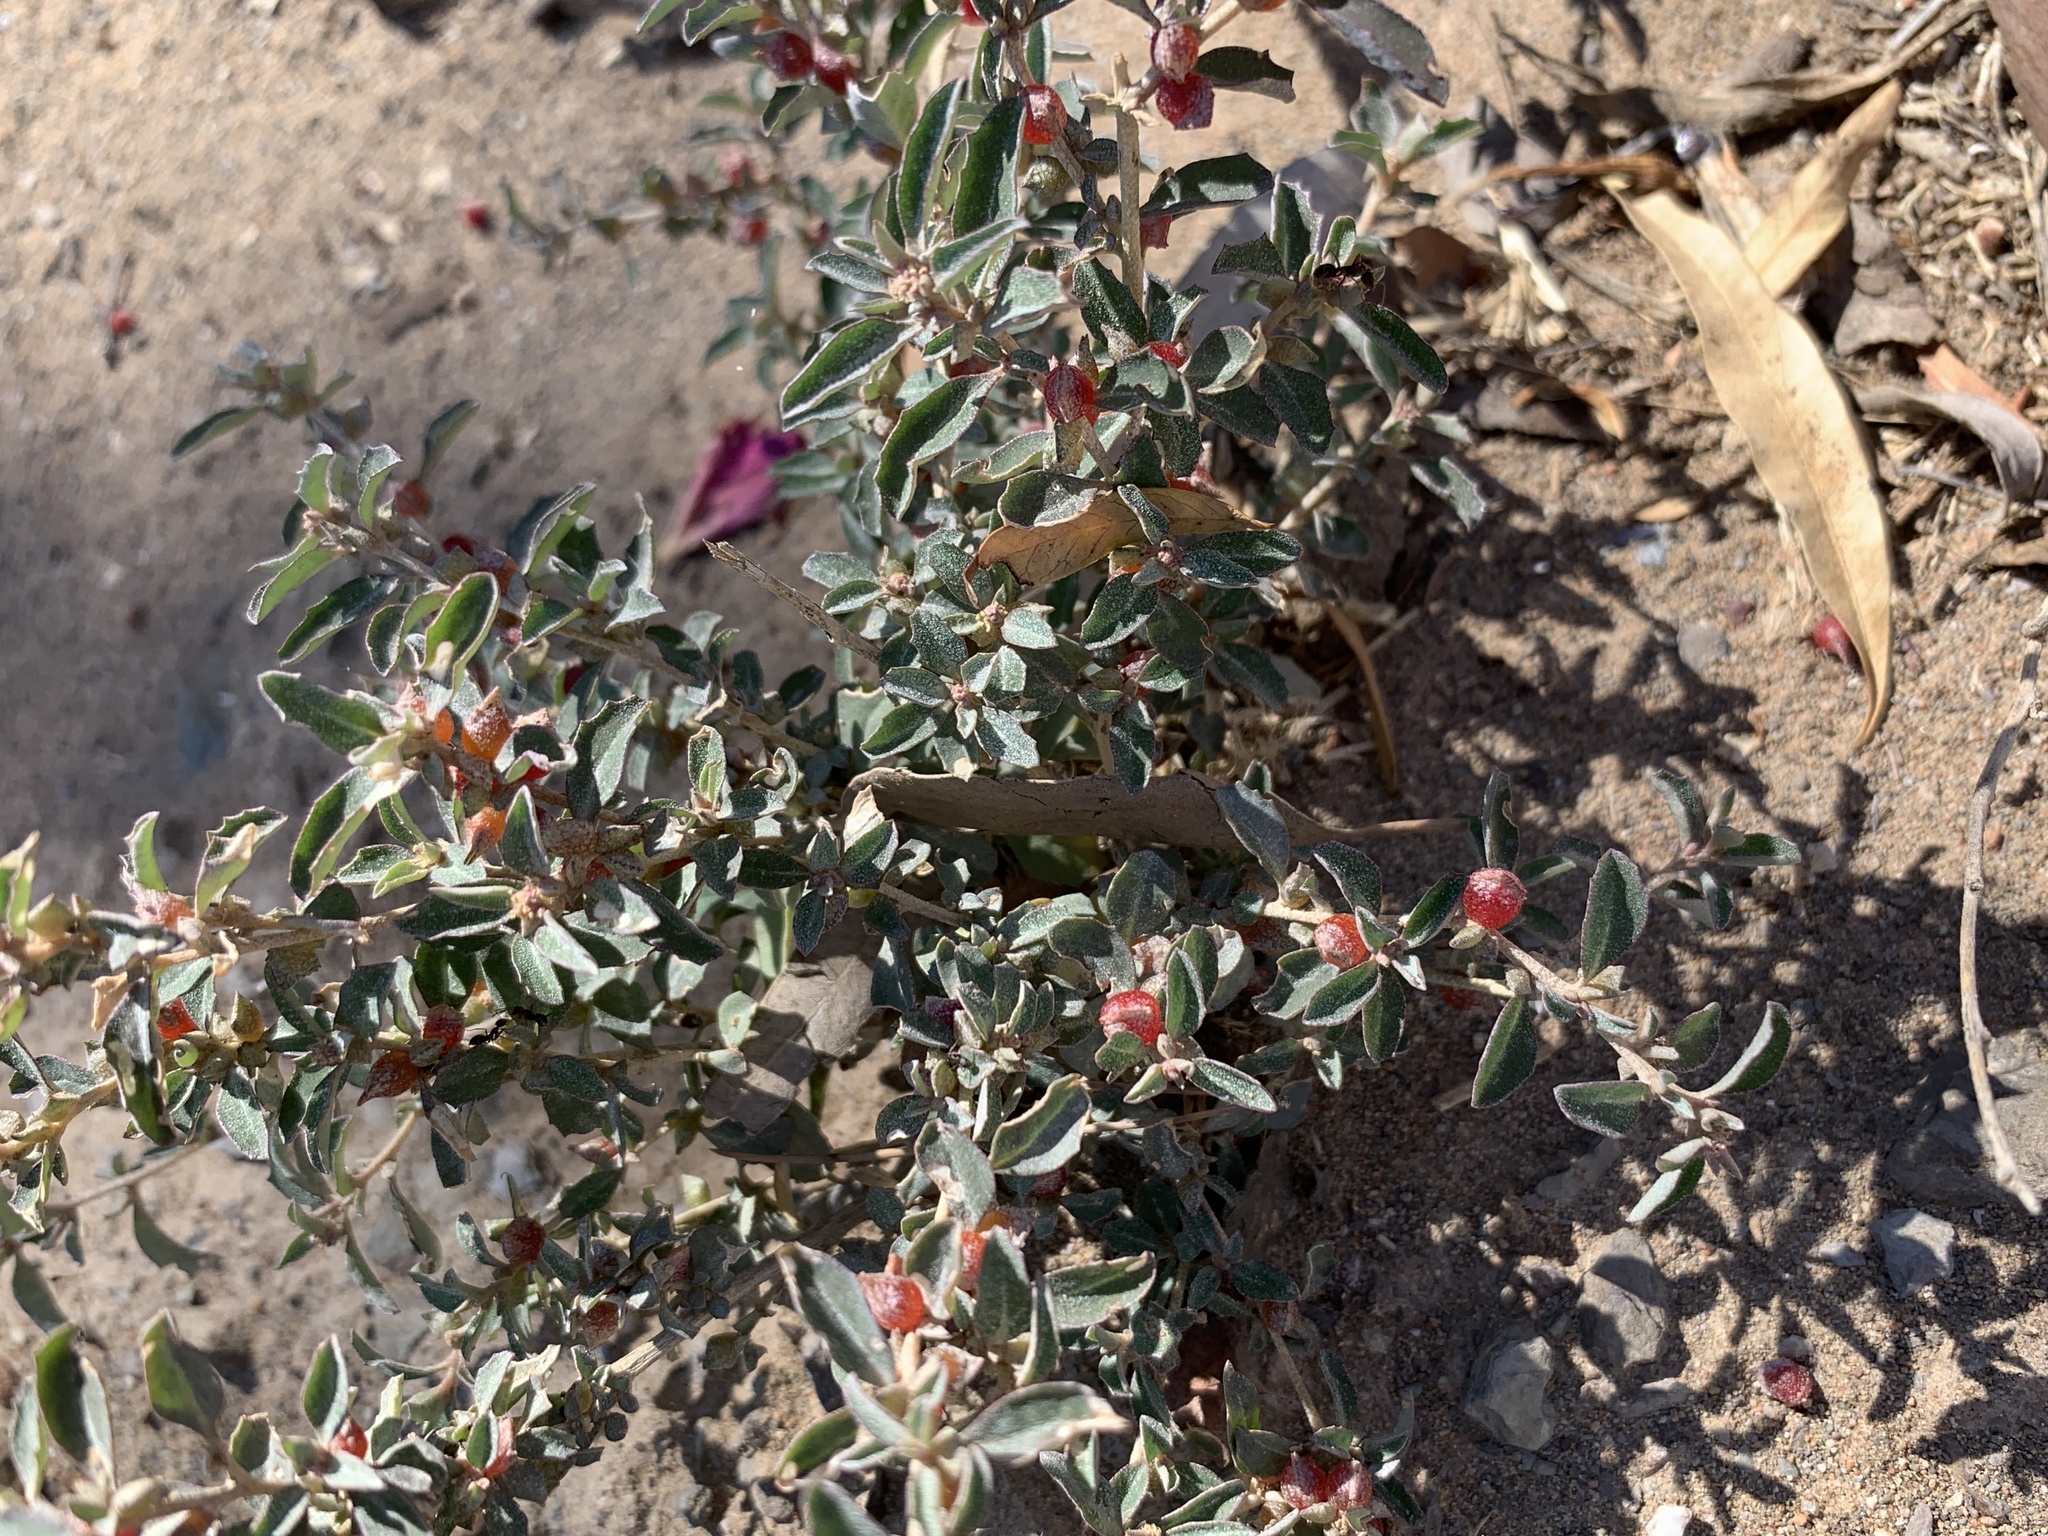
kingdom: Plantae
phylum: Tracheophyta
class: Magnoliopsida
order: Caryophyllales
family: Amaranthaceae
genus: Atriplex
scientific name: Atriplex semibaccata
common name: Australian saltbush
